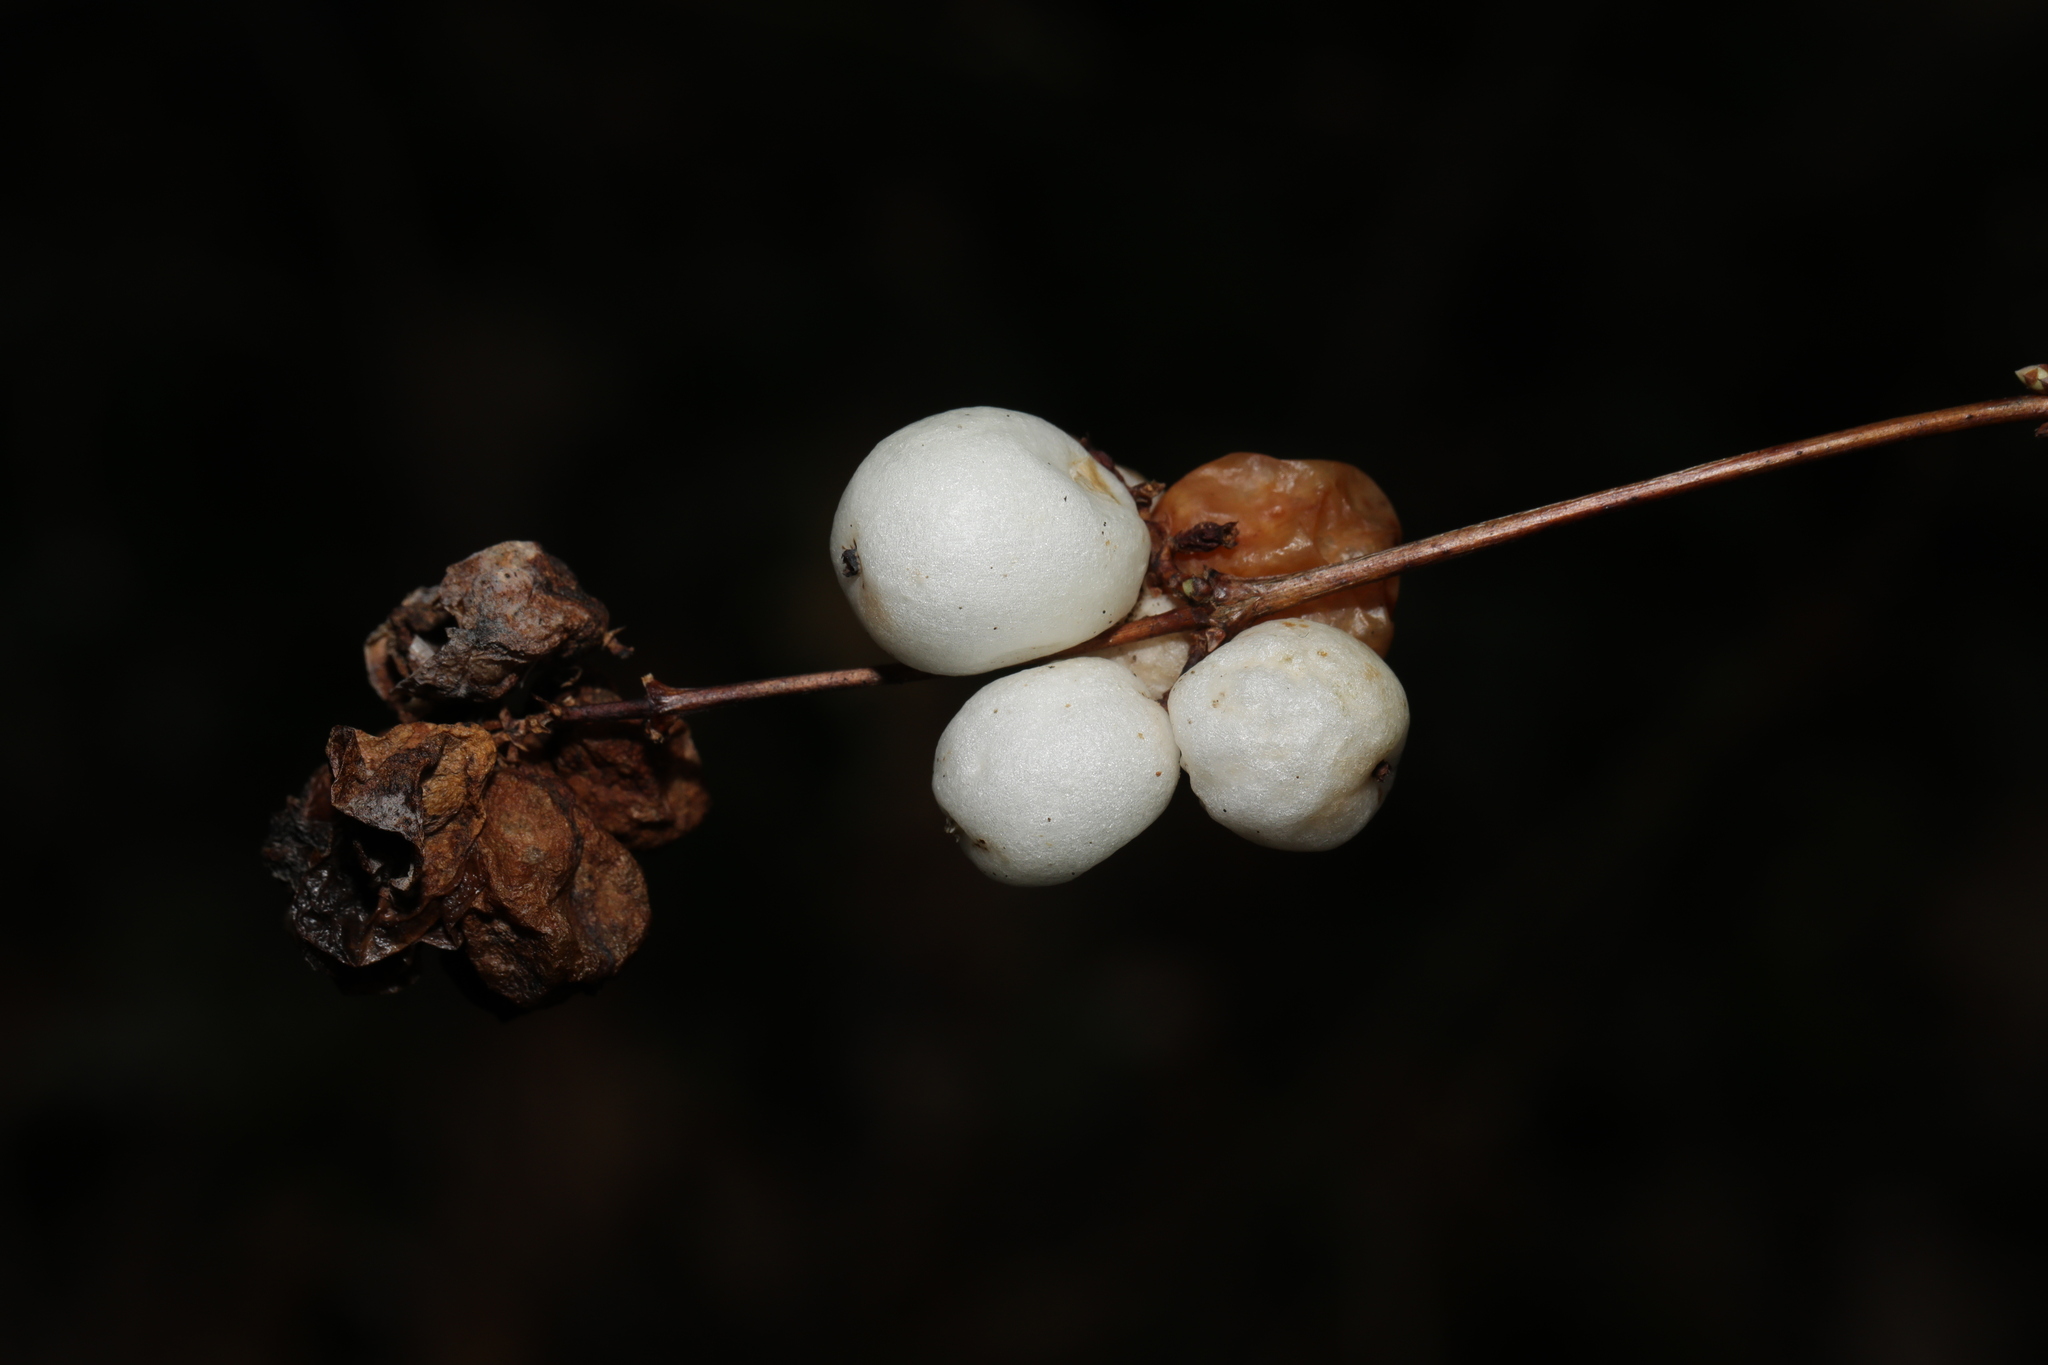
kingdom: Plantae
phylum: Tracheophyta
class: Magnoliopsida
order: Dipsacales
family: Caprifoliaceae
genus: Symphoricarpos
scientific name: Symphoricarpos albus
